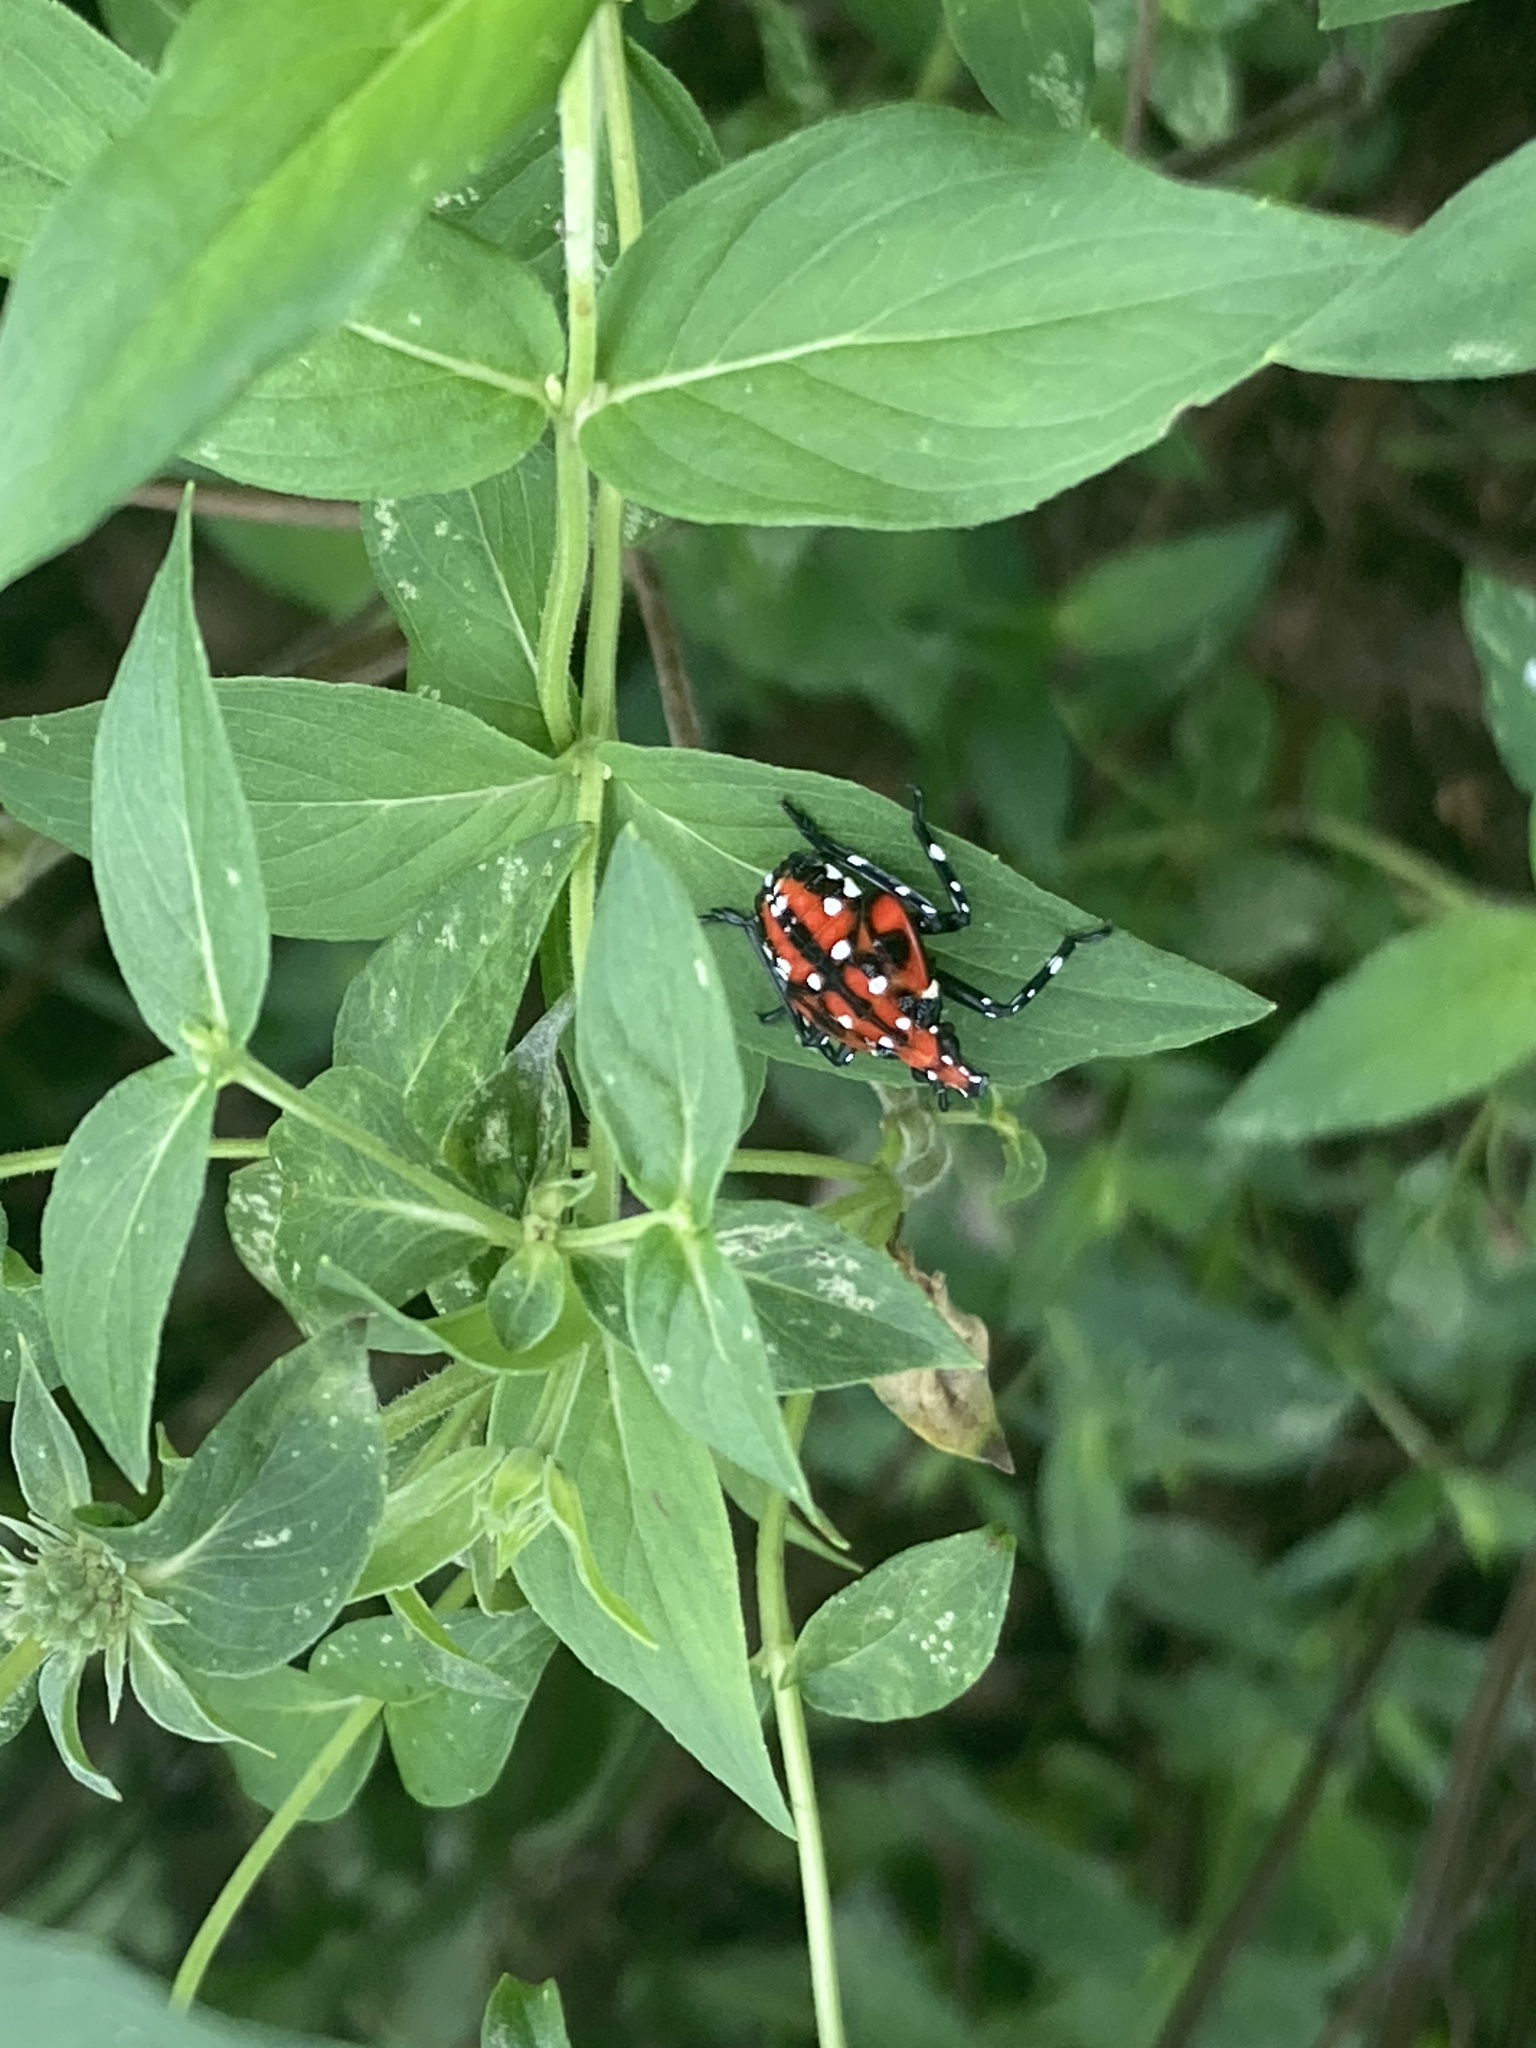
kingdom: Animalia
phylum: Arthropoda
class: Insecta
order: Hemiptera
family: Fulgoridae
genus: Lycorma
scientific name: Lycorma delicatula
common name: Spotted lanternfly
